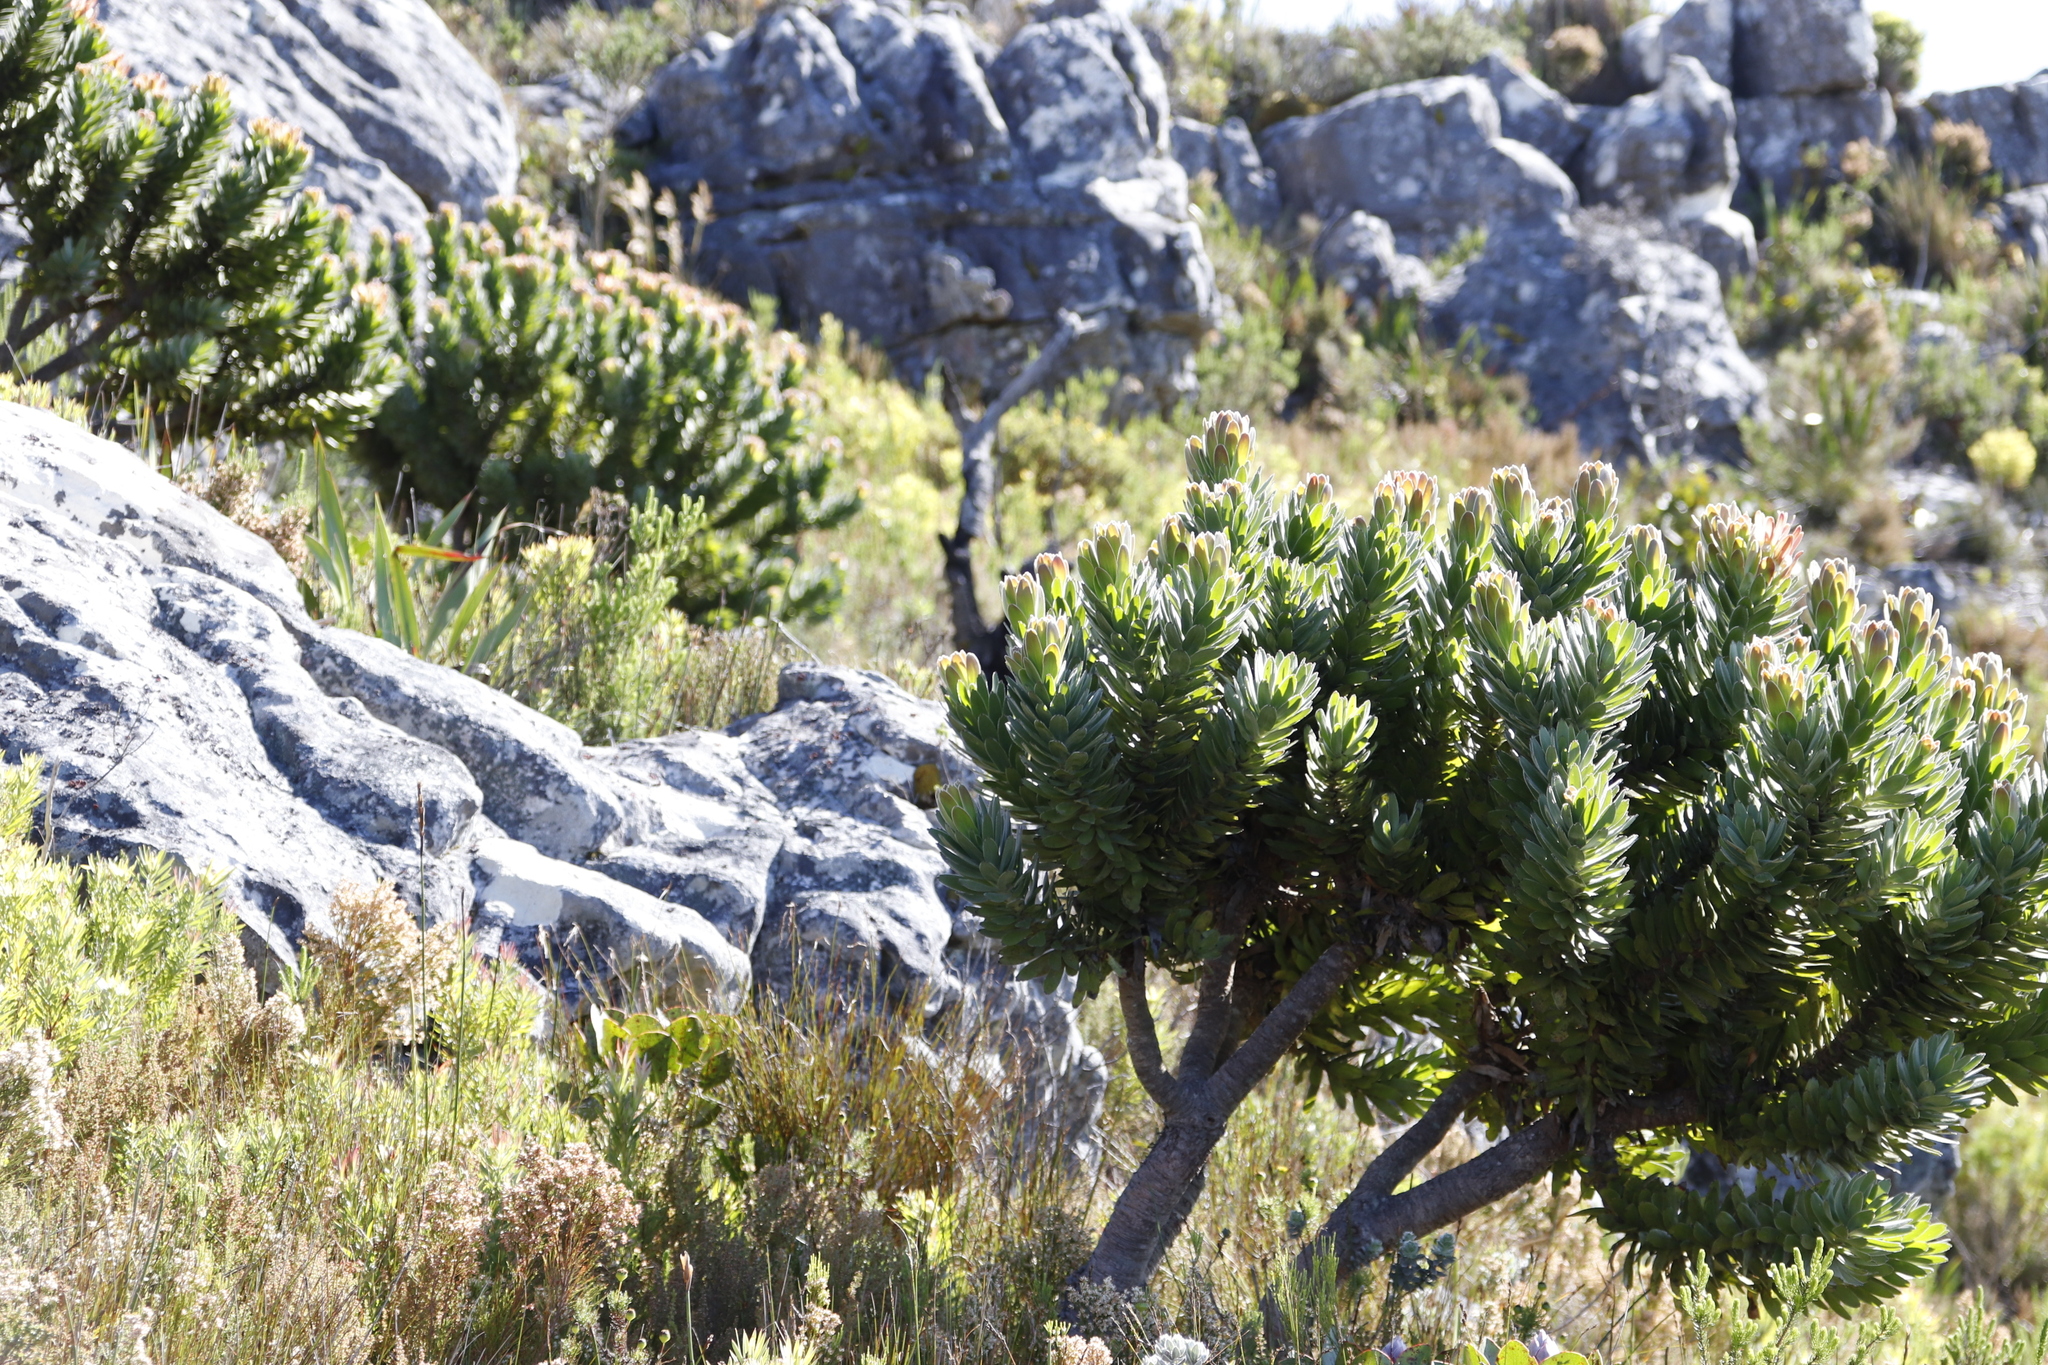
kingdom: Plantae
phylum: Tracheophyta
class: Magnoliopsida
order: Proteales
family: Proteaceae
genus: Mimetes
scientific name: Mimetes fimbriifolius
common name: Fringed bottlebrush
